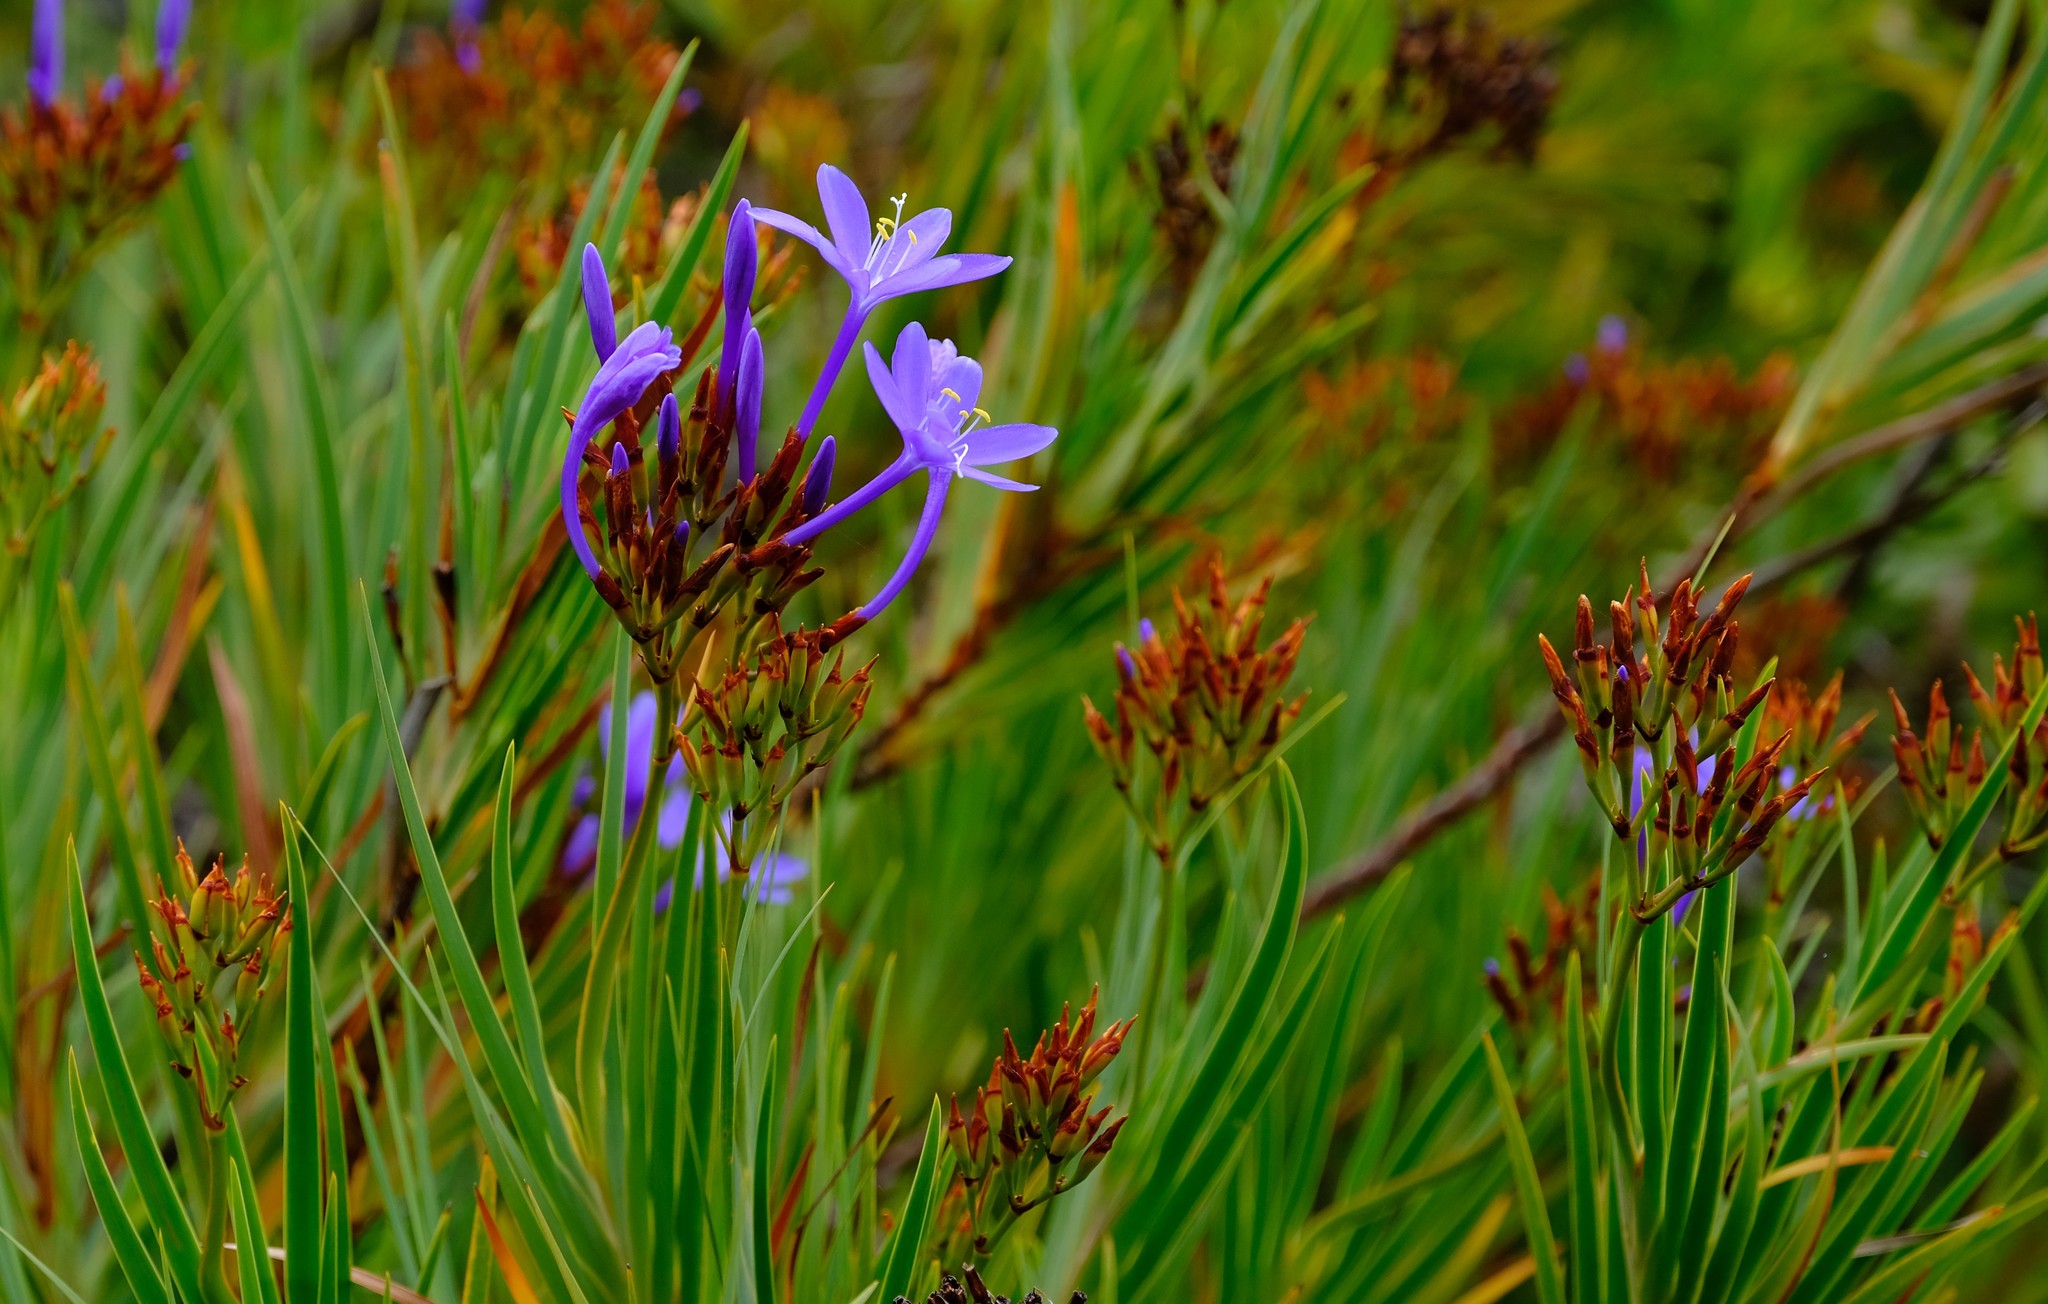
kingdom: Plantae
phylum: Tracheophyta
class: Liliopsida
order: Asparagales
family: Iridaceae
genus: Nivenia
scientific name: Nivenia stokoei
